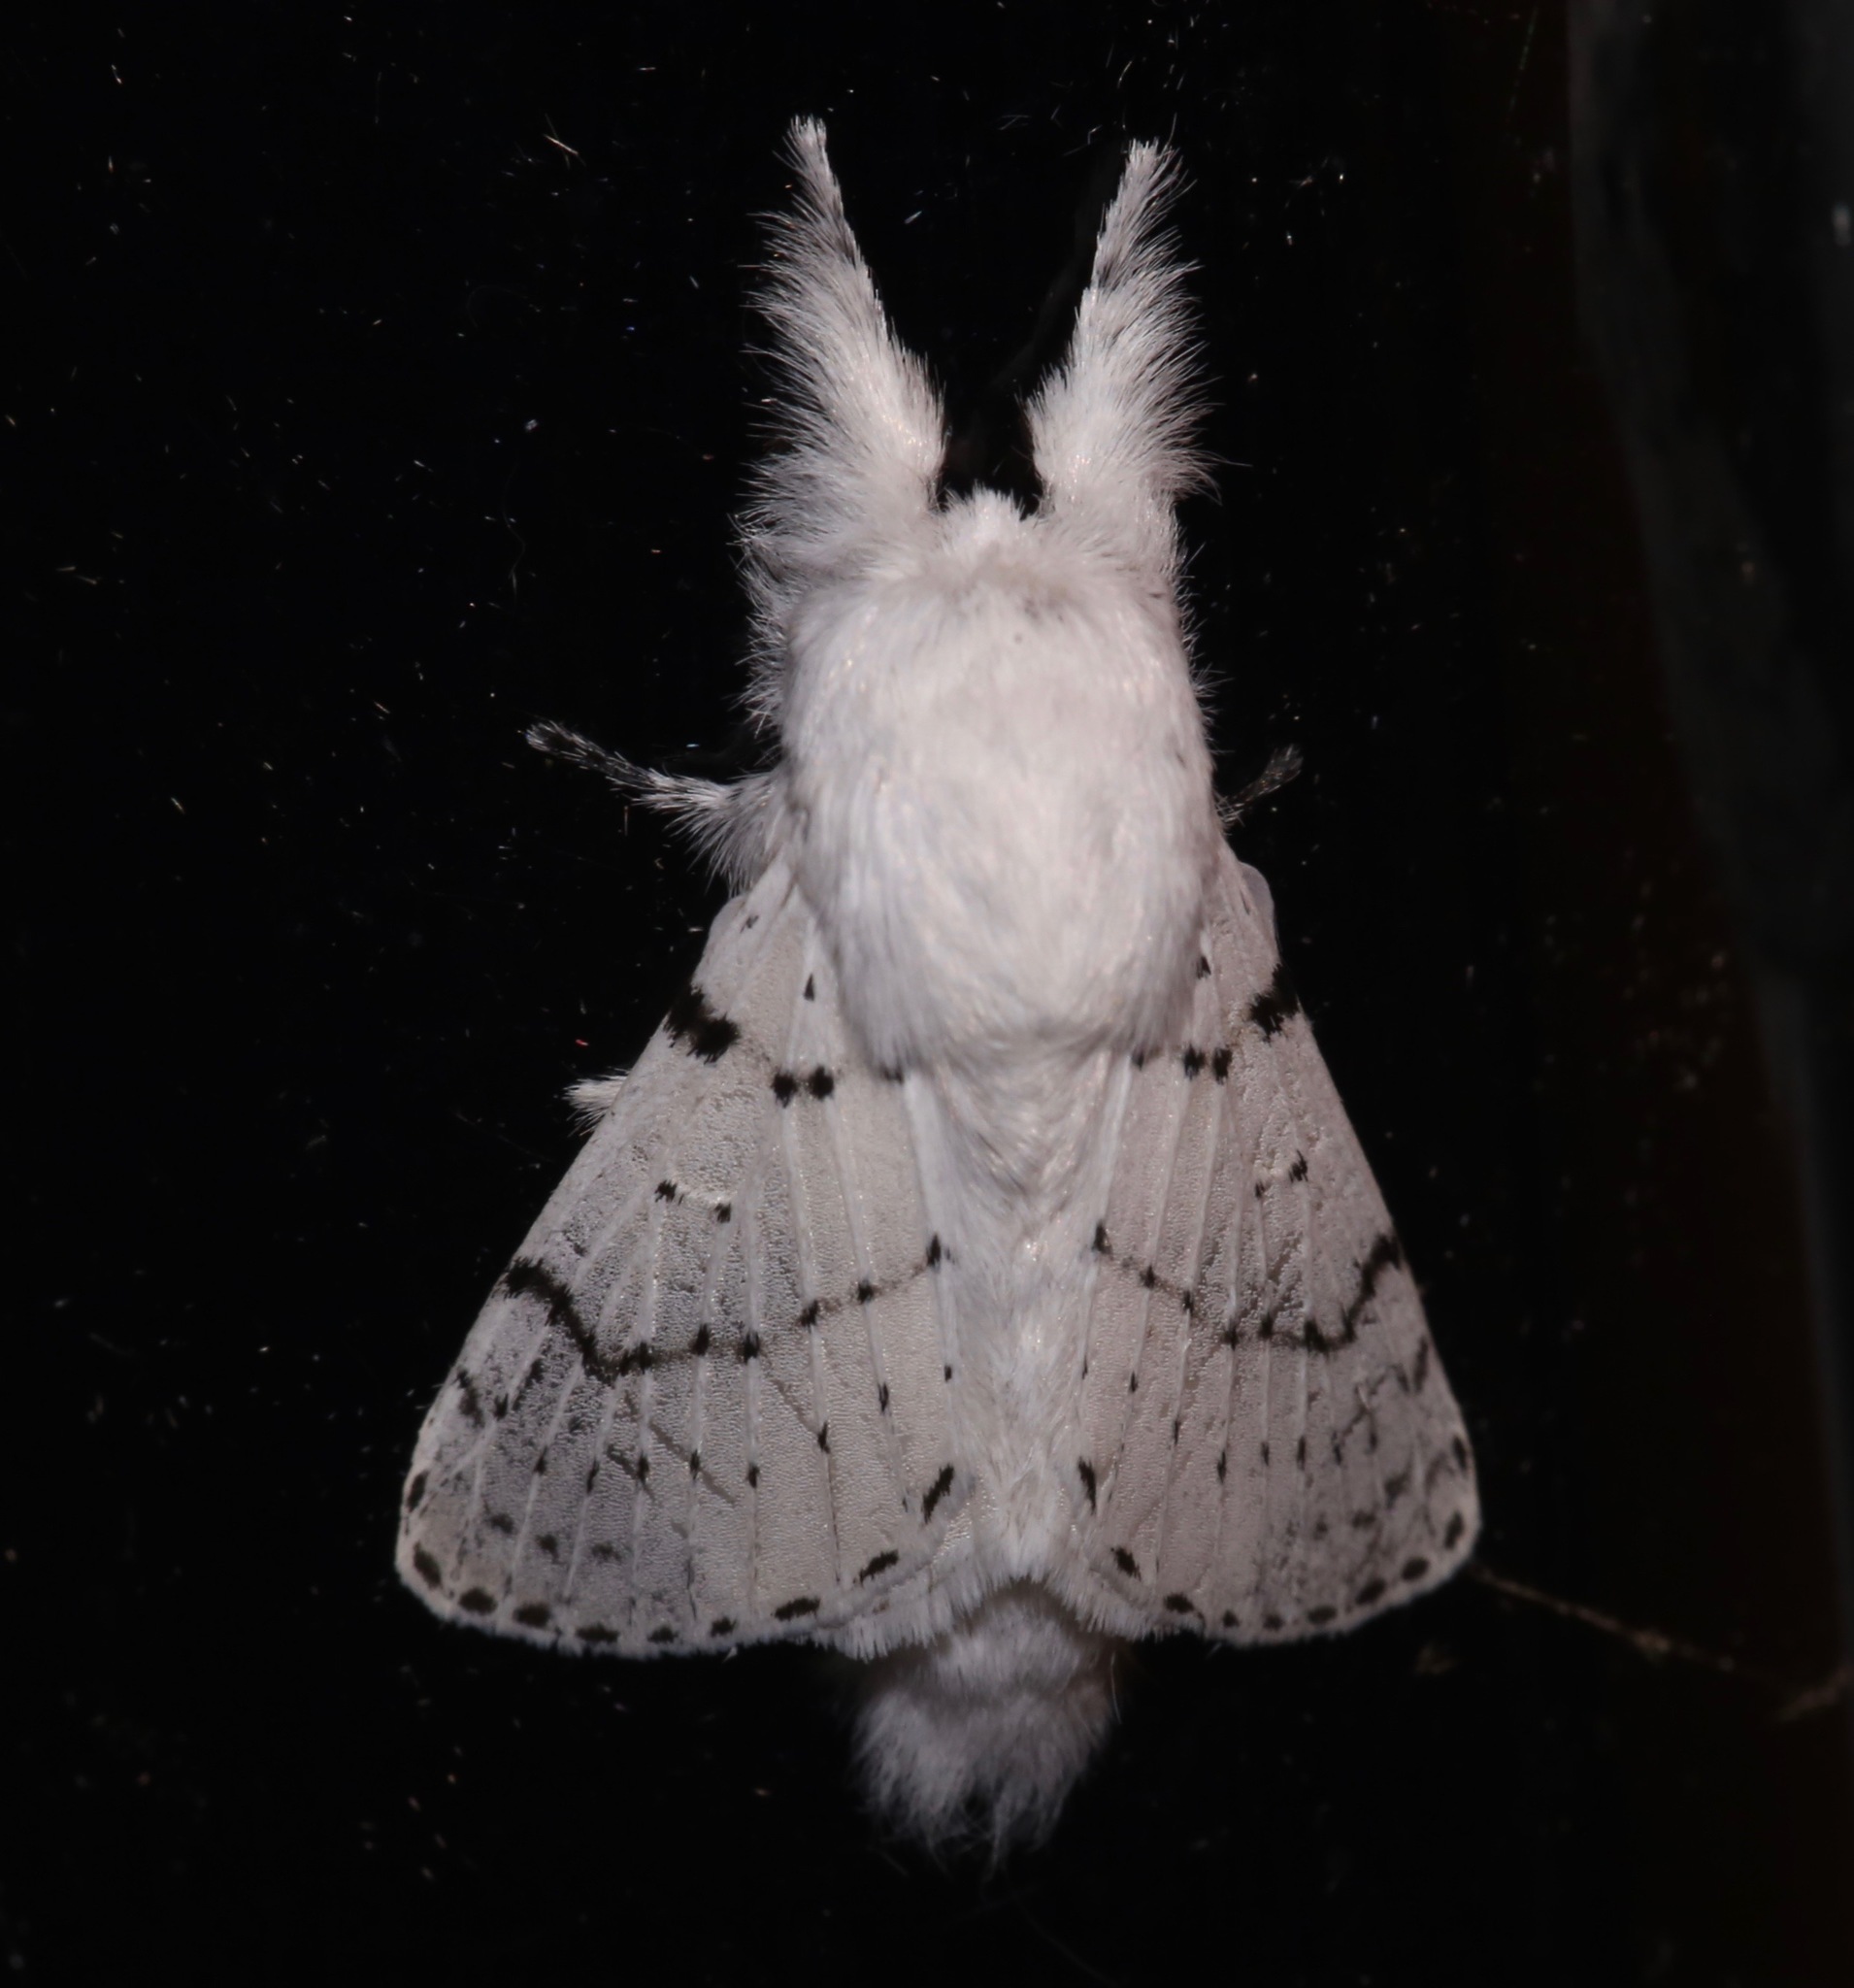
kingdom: Animalia
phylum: Arthropoda
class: Insecta
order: Lepidoptera
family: Lasiocampidae
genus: Artace
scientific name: Artace cribrarius
